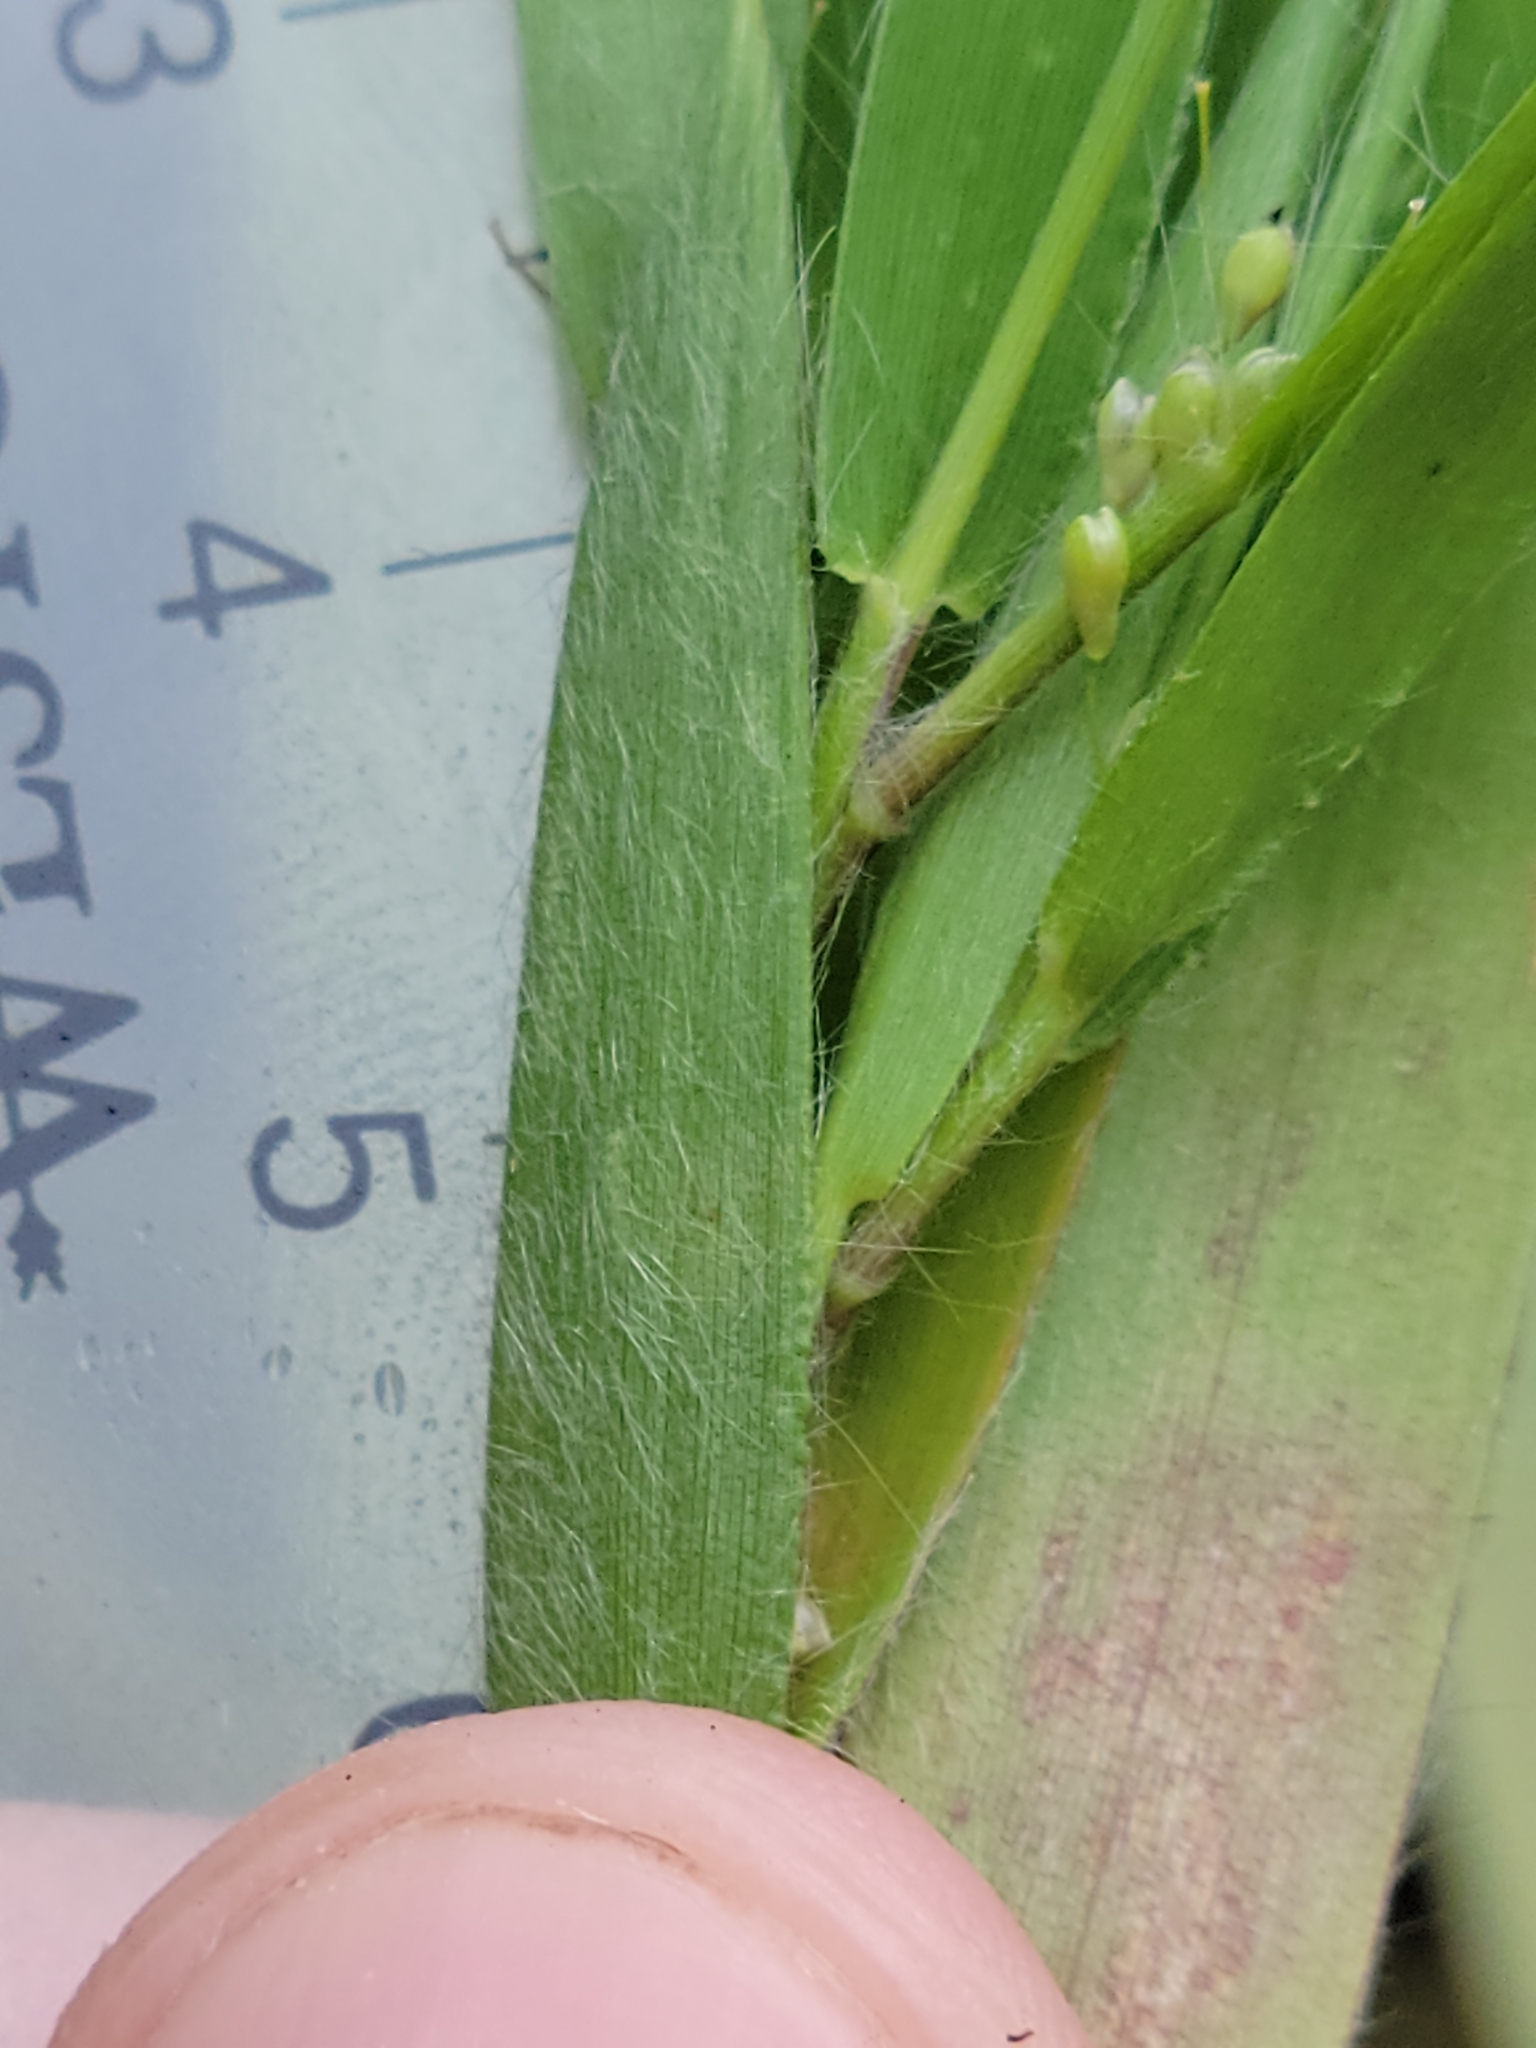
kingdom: Plantae
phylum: Tracheophyta
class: Liliopsida
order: Poales
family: Poaceae
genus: Dichanthelium
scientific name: Dichanthelium ovale
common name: Stiff-leaved panicgrass
